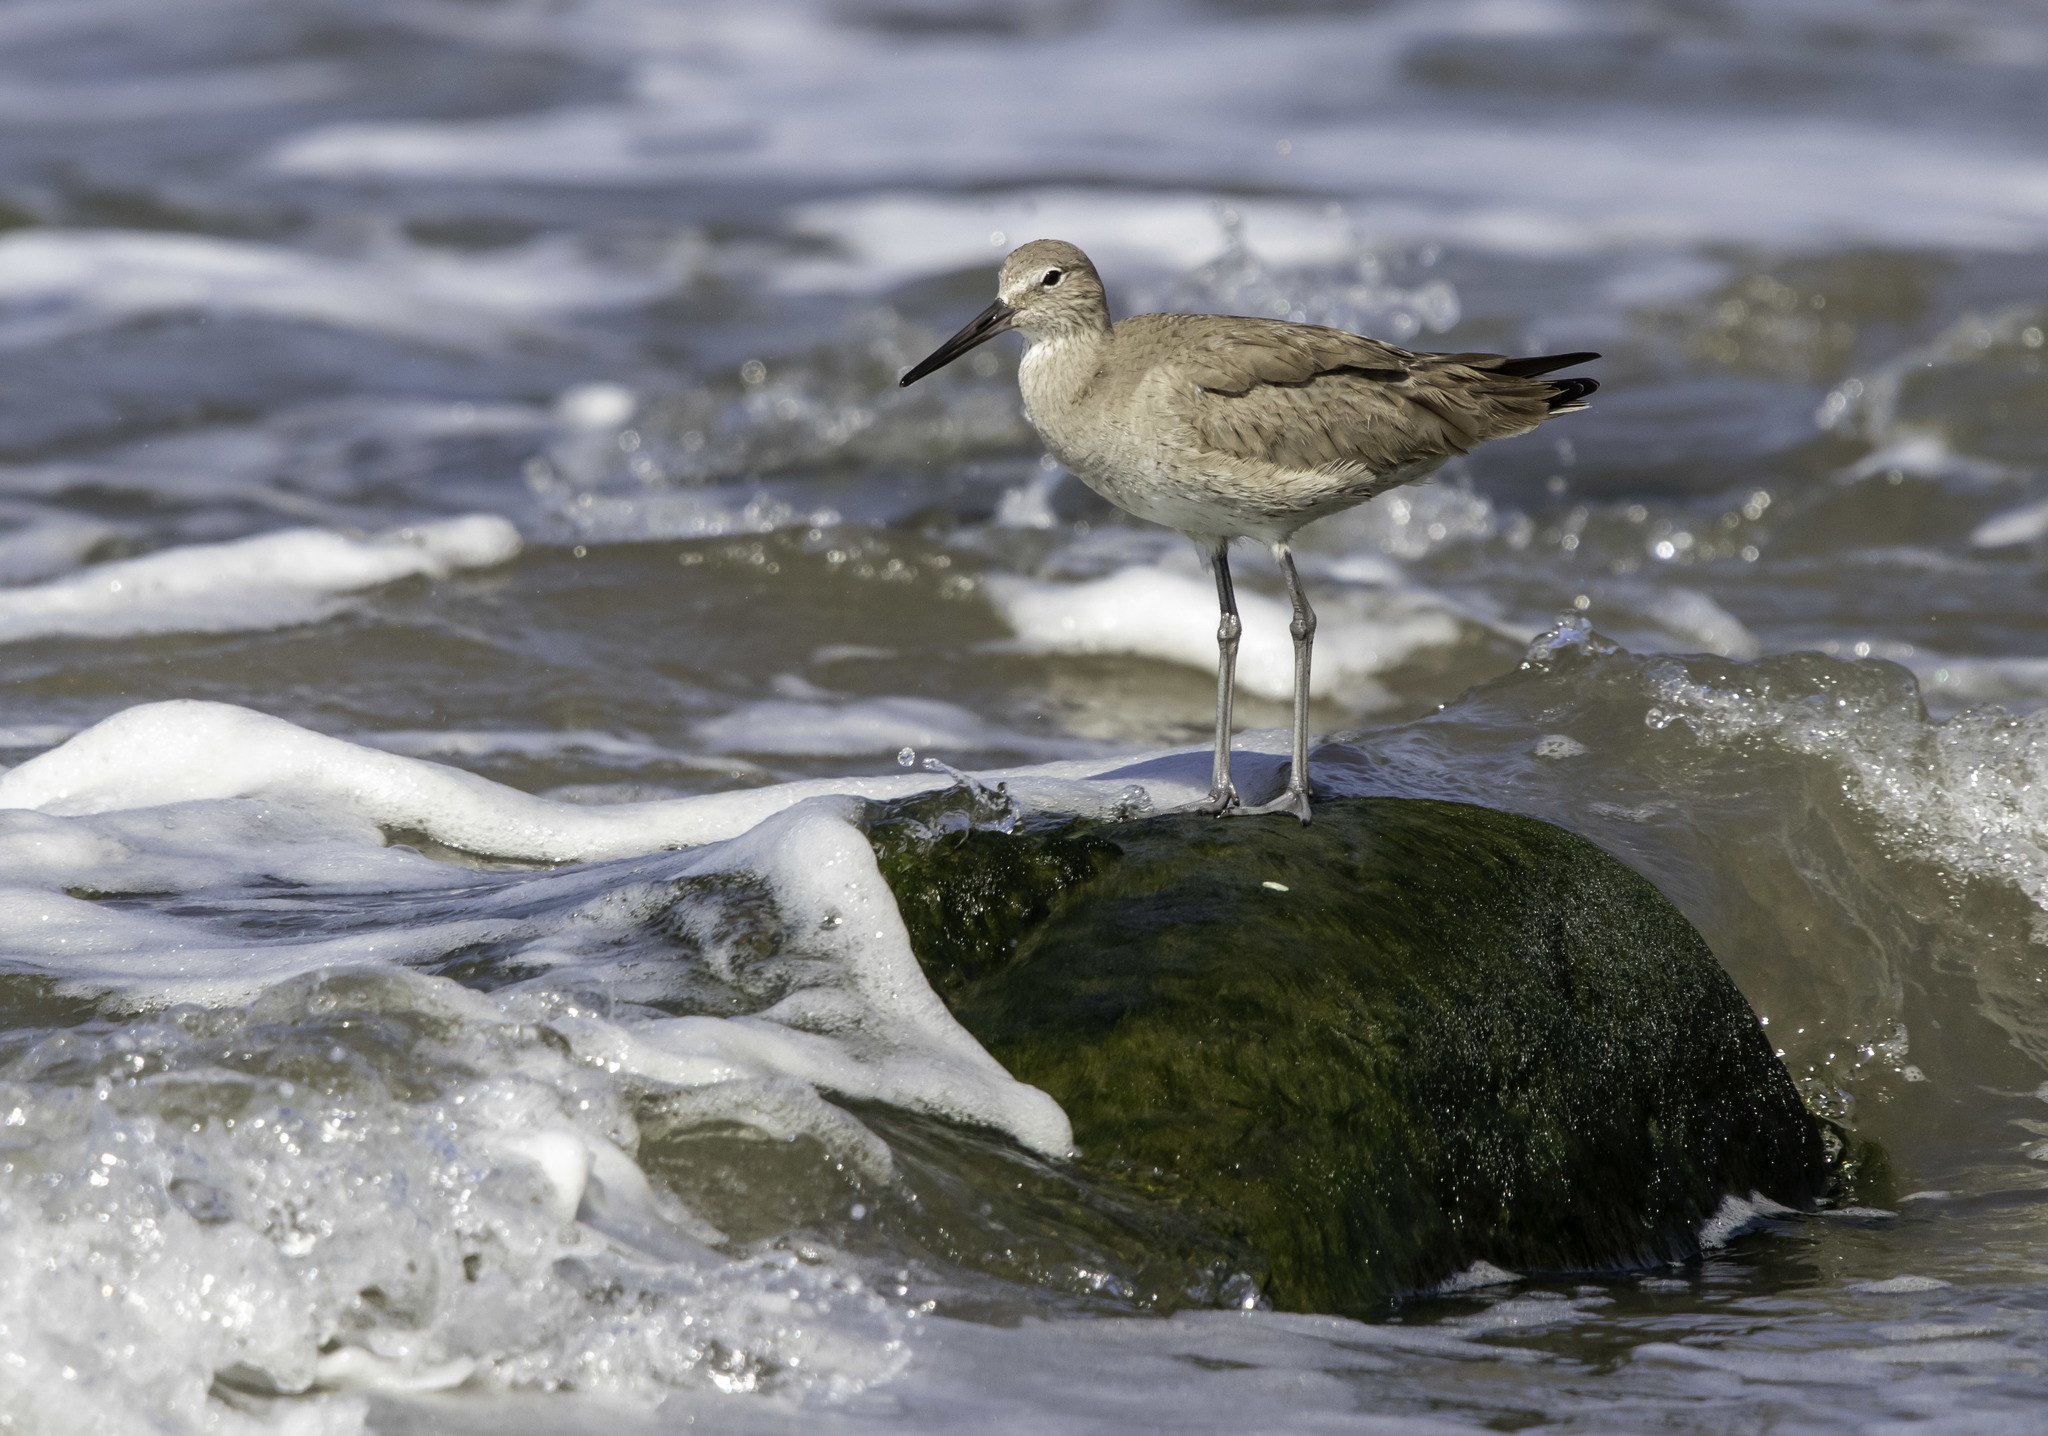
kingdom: Animalia
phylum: Chordata
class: Aves
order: Charadriiformes
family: Scolopacidae
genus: Tringa
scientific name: Tringa semipalmata
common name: Willet
